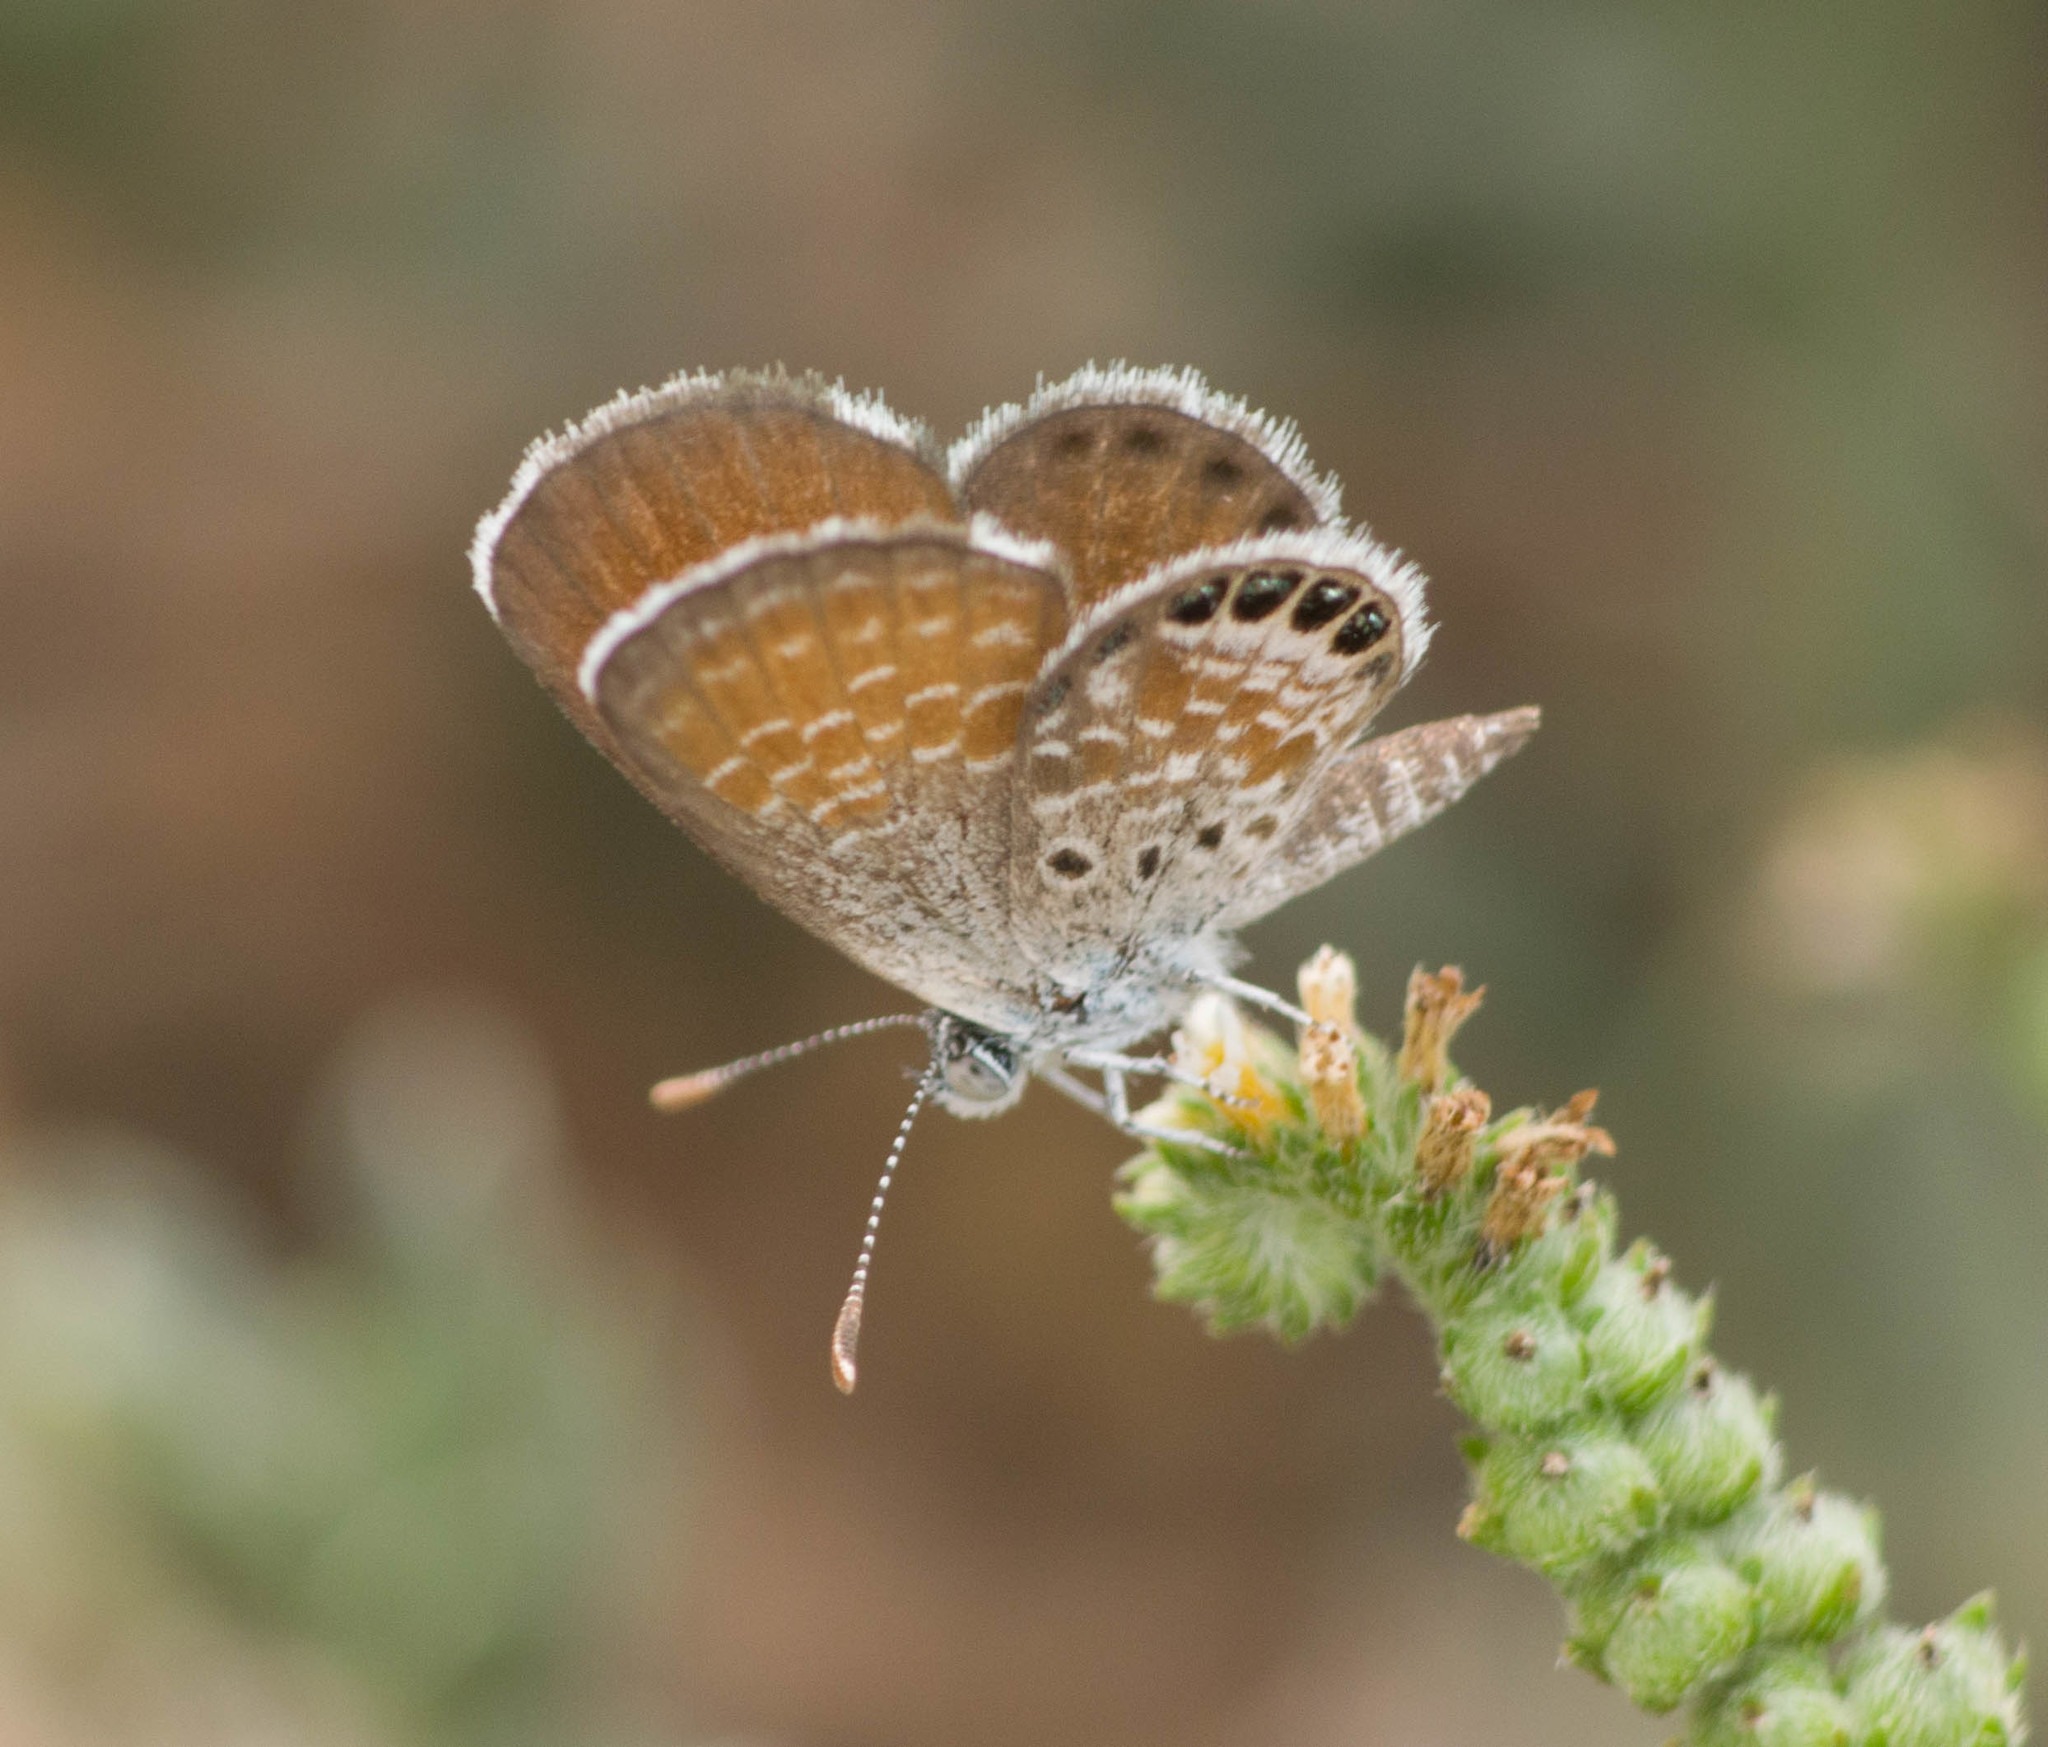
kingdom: Animalia
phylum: Arthropoda
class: Insecta
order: Lepidoptera
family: Lycaenidae
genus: Brephidium
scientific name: Brephidium exilis
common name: Pygmy blue
